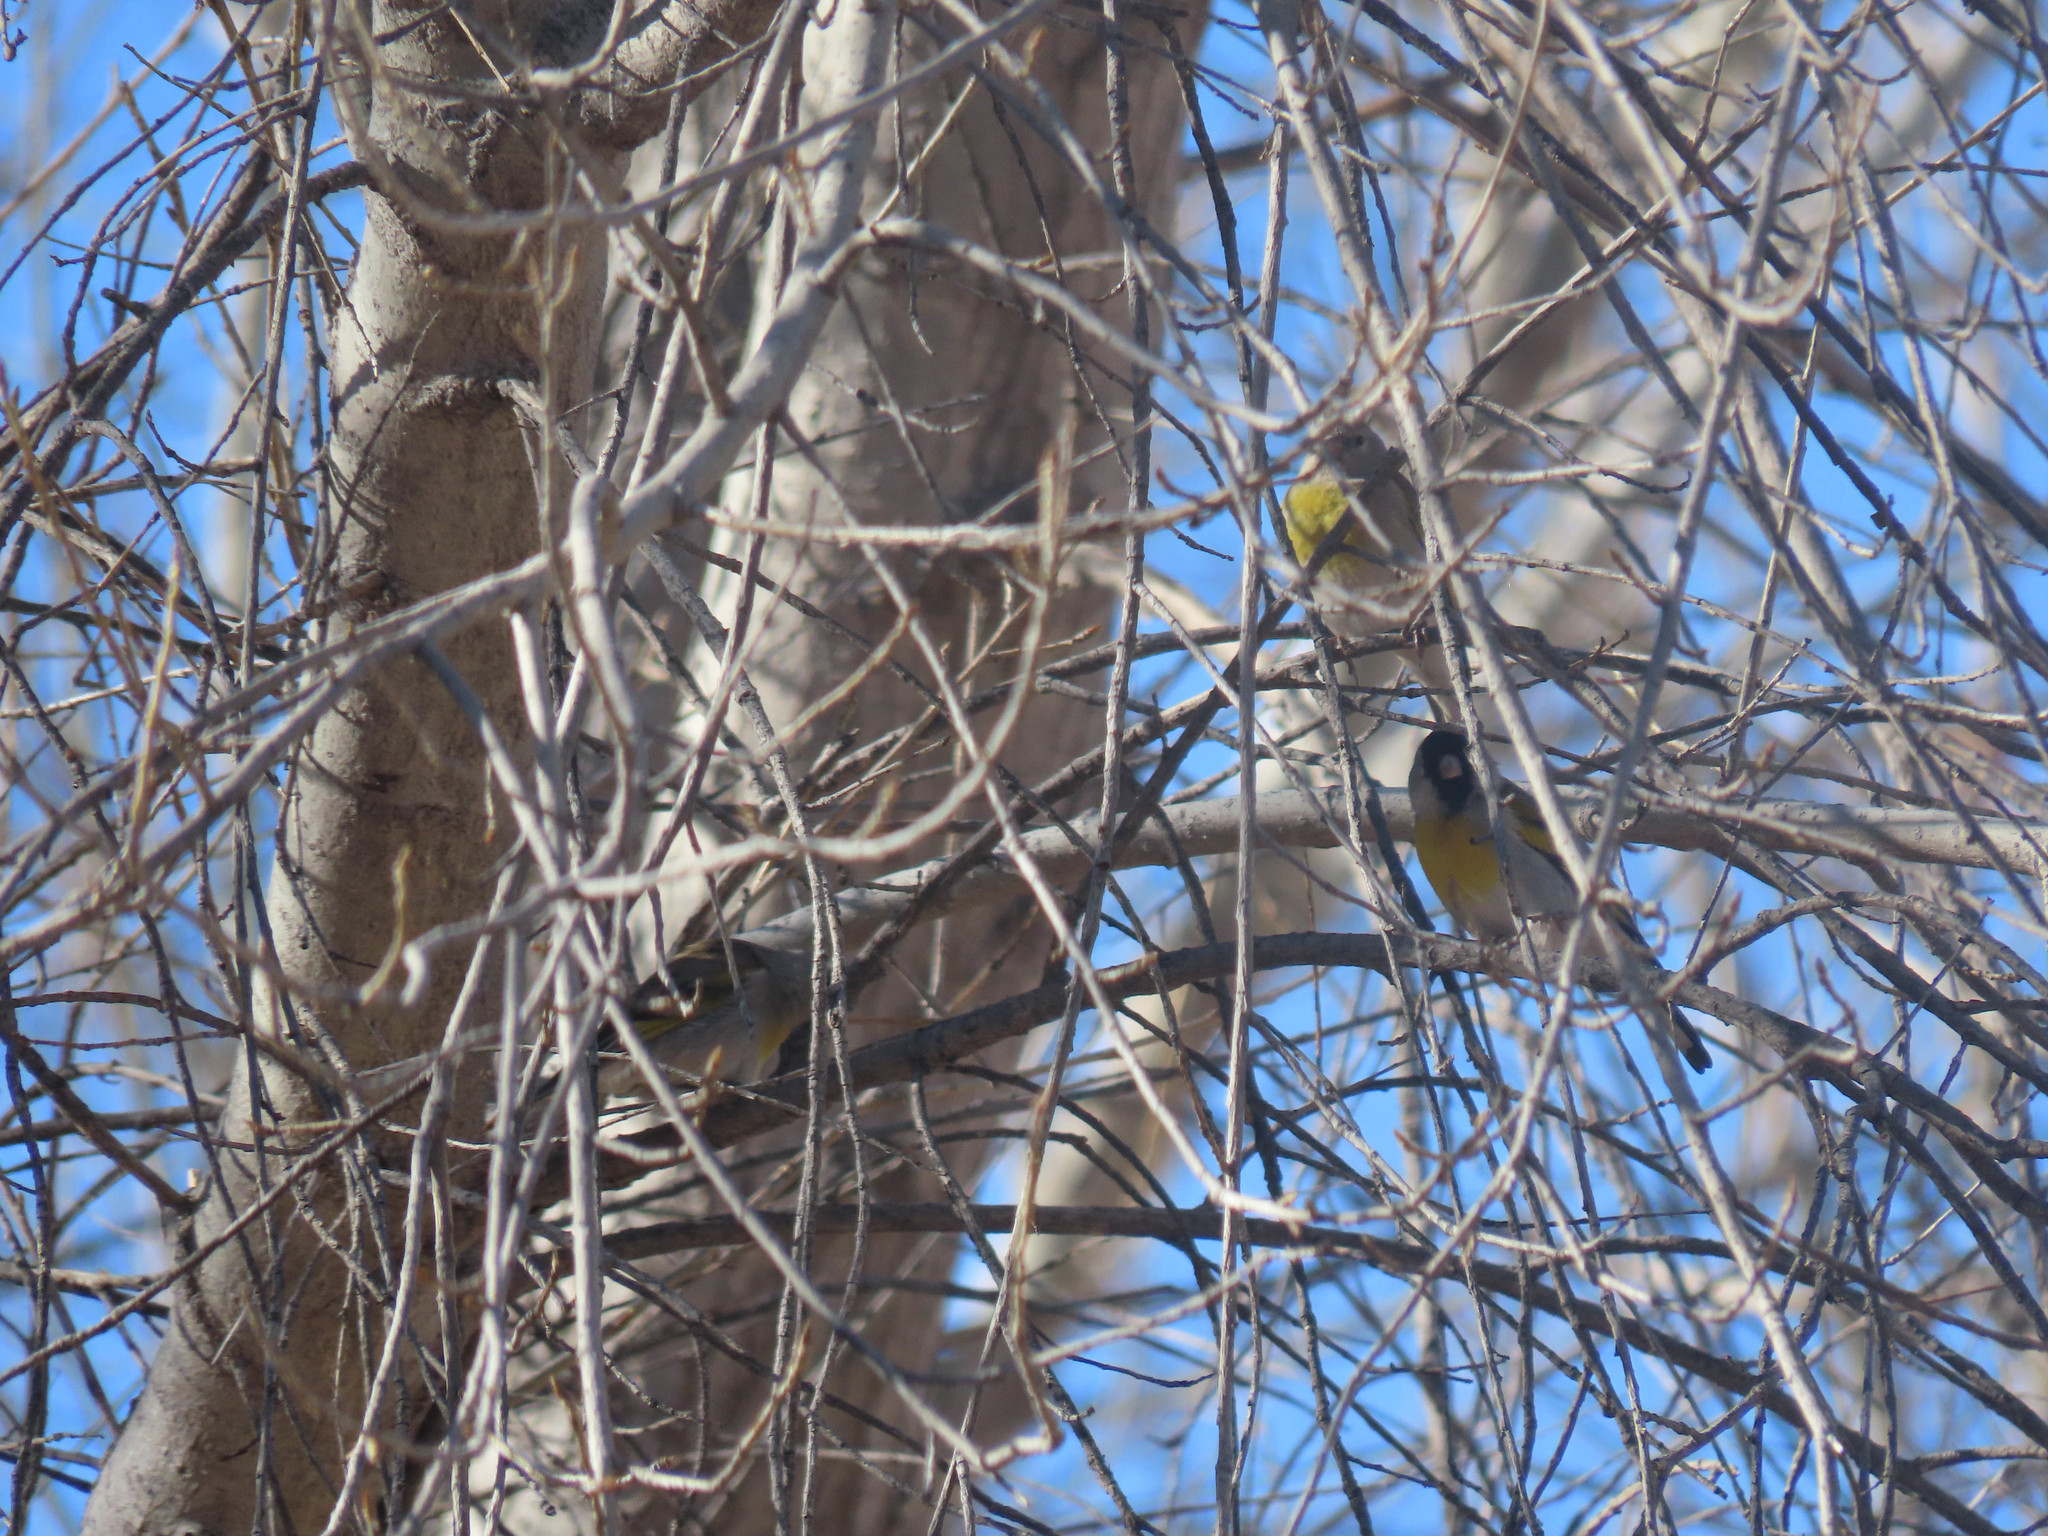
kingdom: Animalia
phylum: Chordata
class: Aves
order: Passeriformes
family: Fringillidae
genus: Spinus
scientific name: Spinus lawrencei
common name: Lawrence's goldfinch
